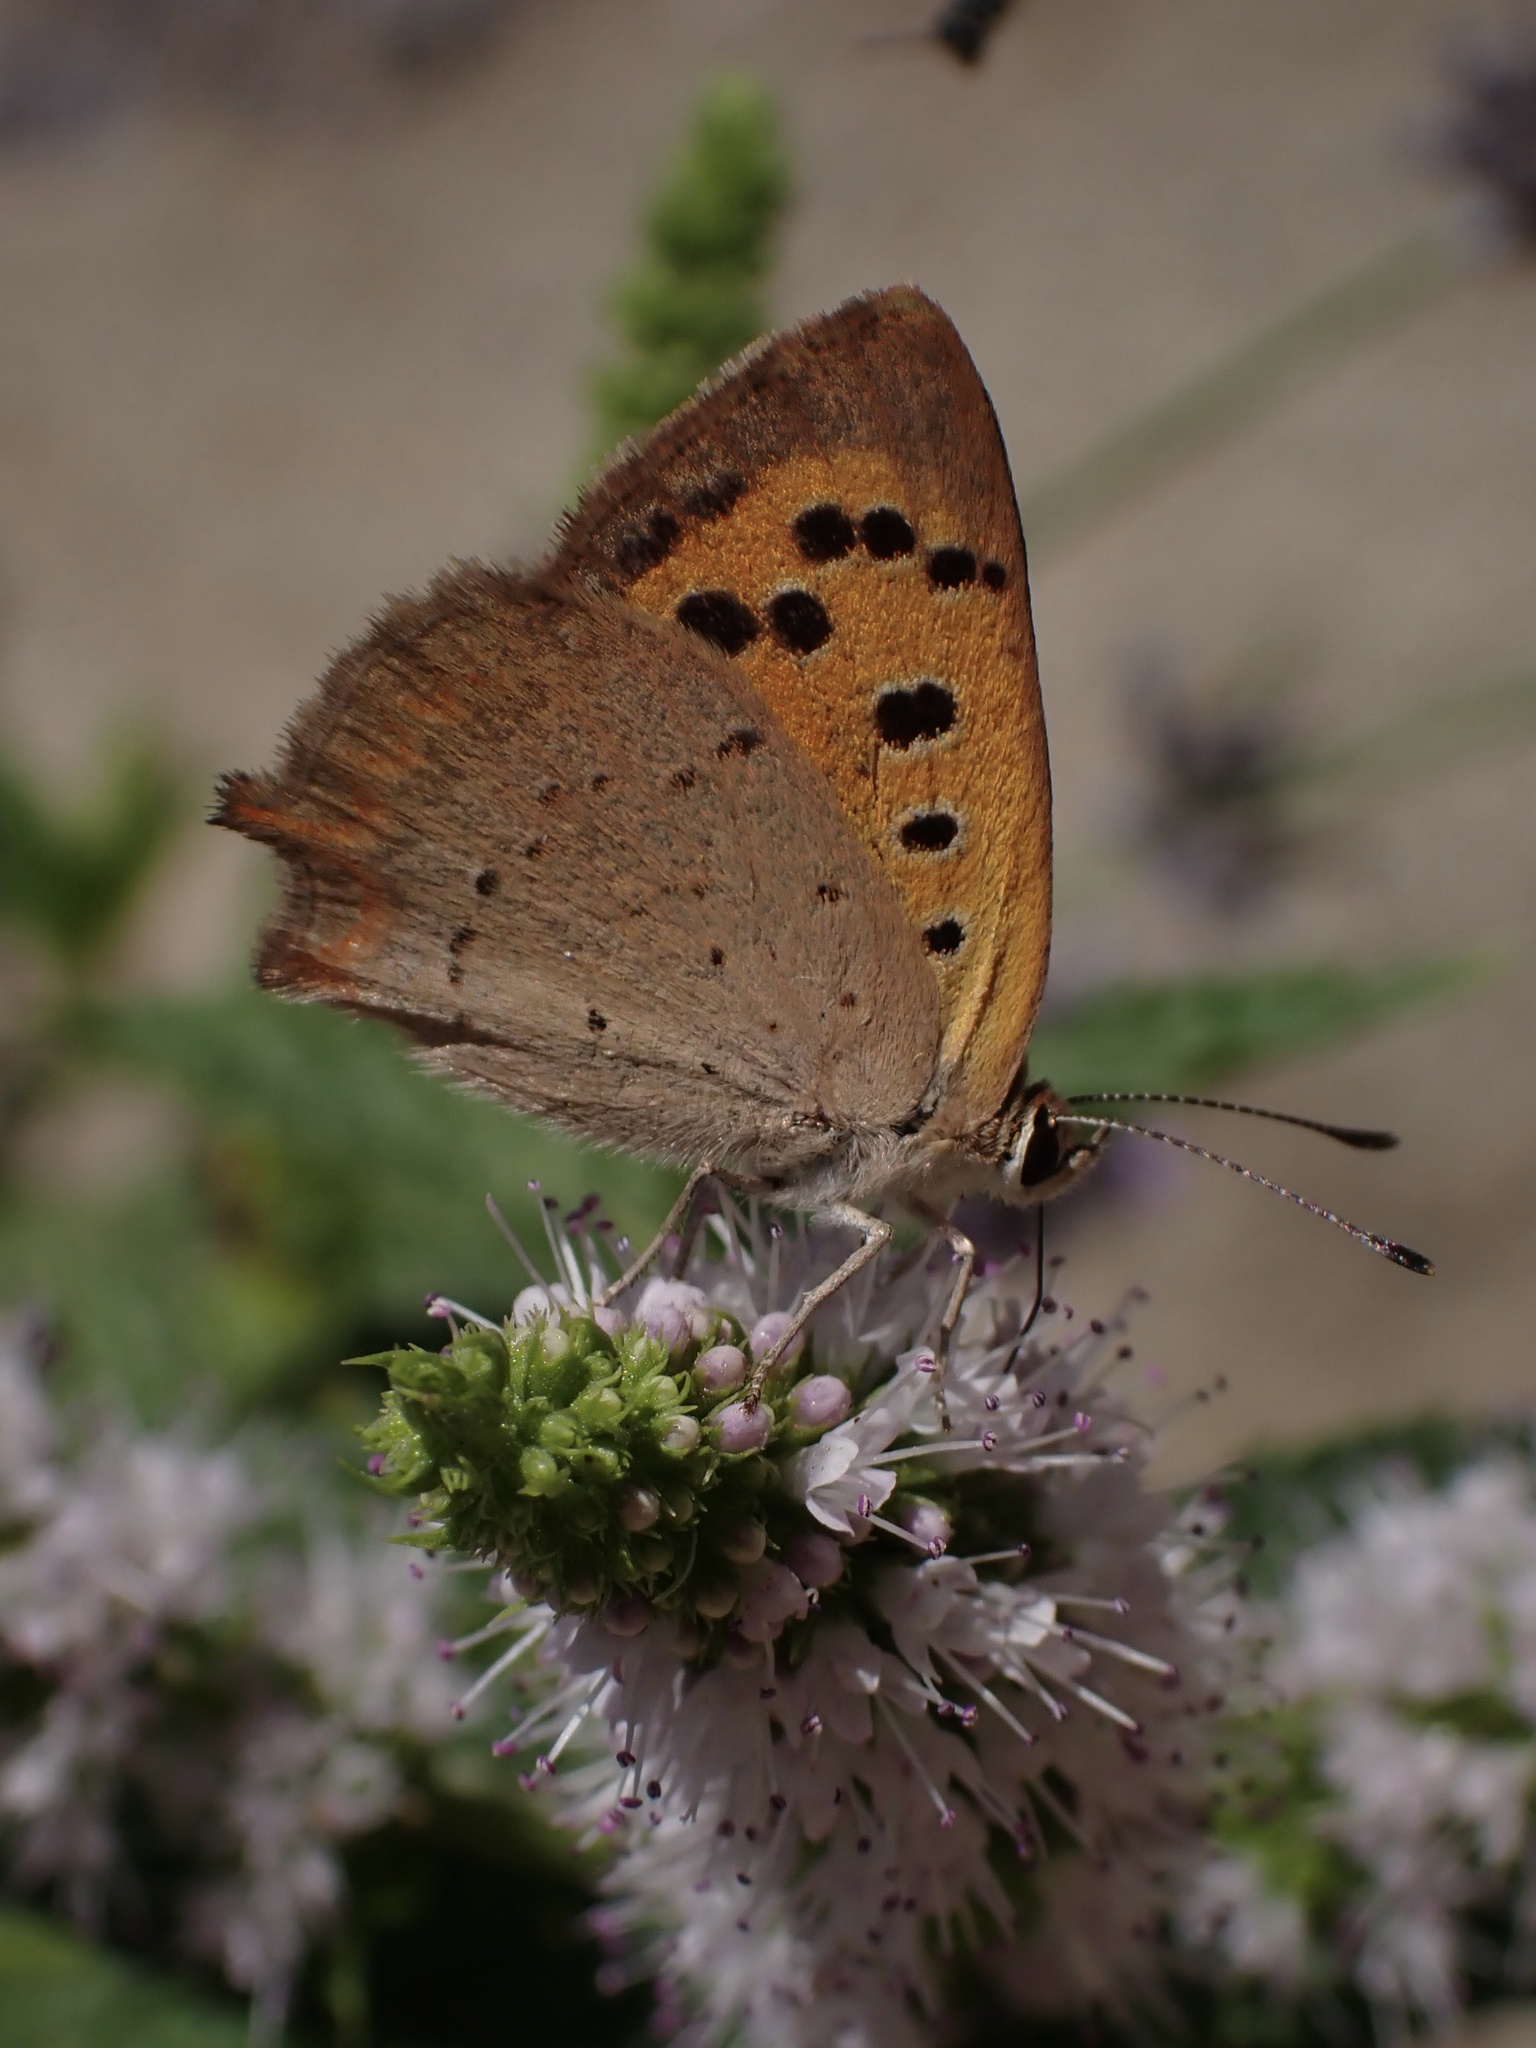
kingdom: Animalia
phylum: Arthropoda
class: Insecta
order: Lepidoptera
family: Lycaenidae
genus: Lycaena
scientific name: Lycaena phlaeas
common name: Small copper
